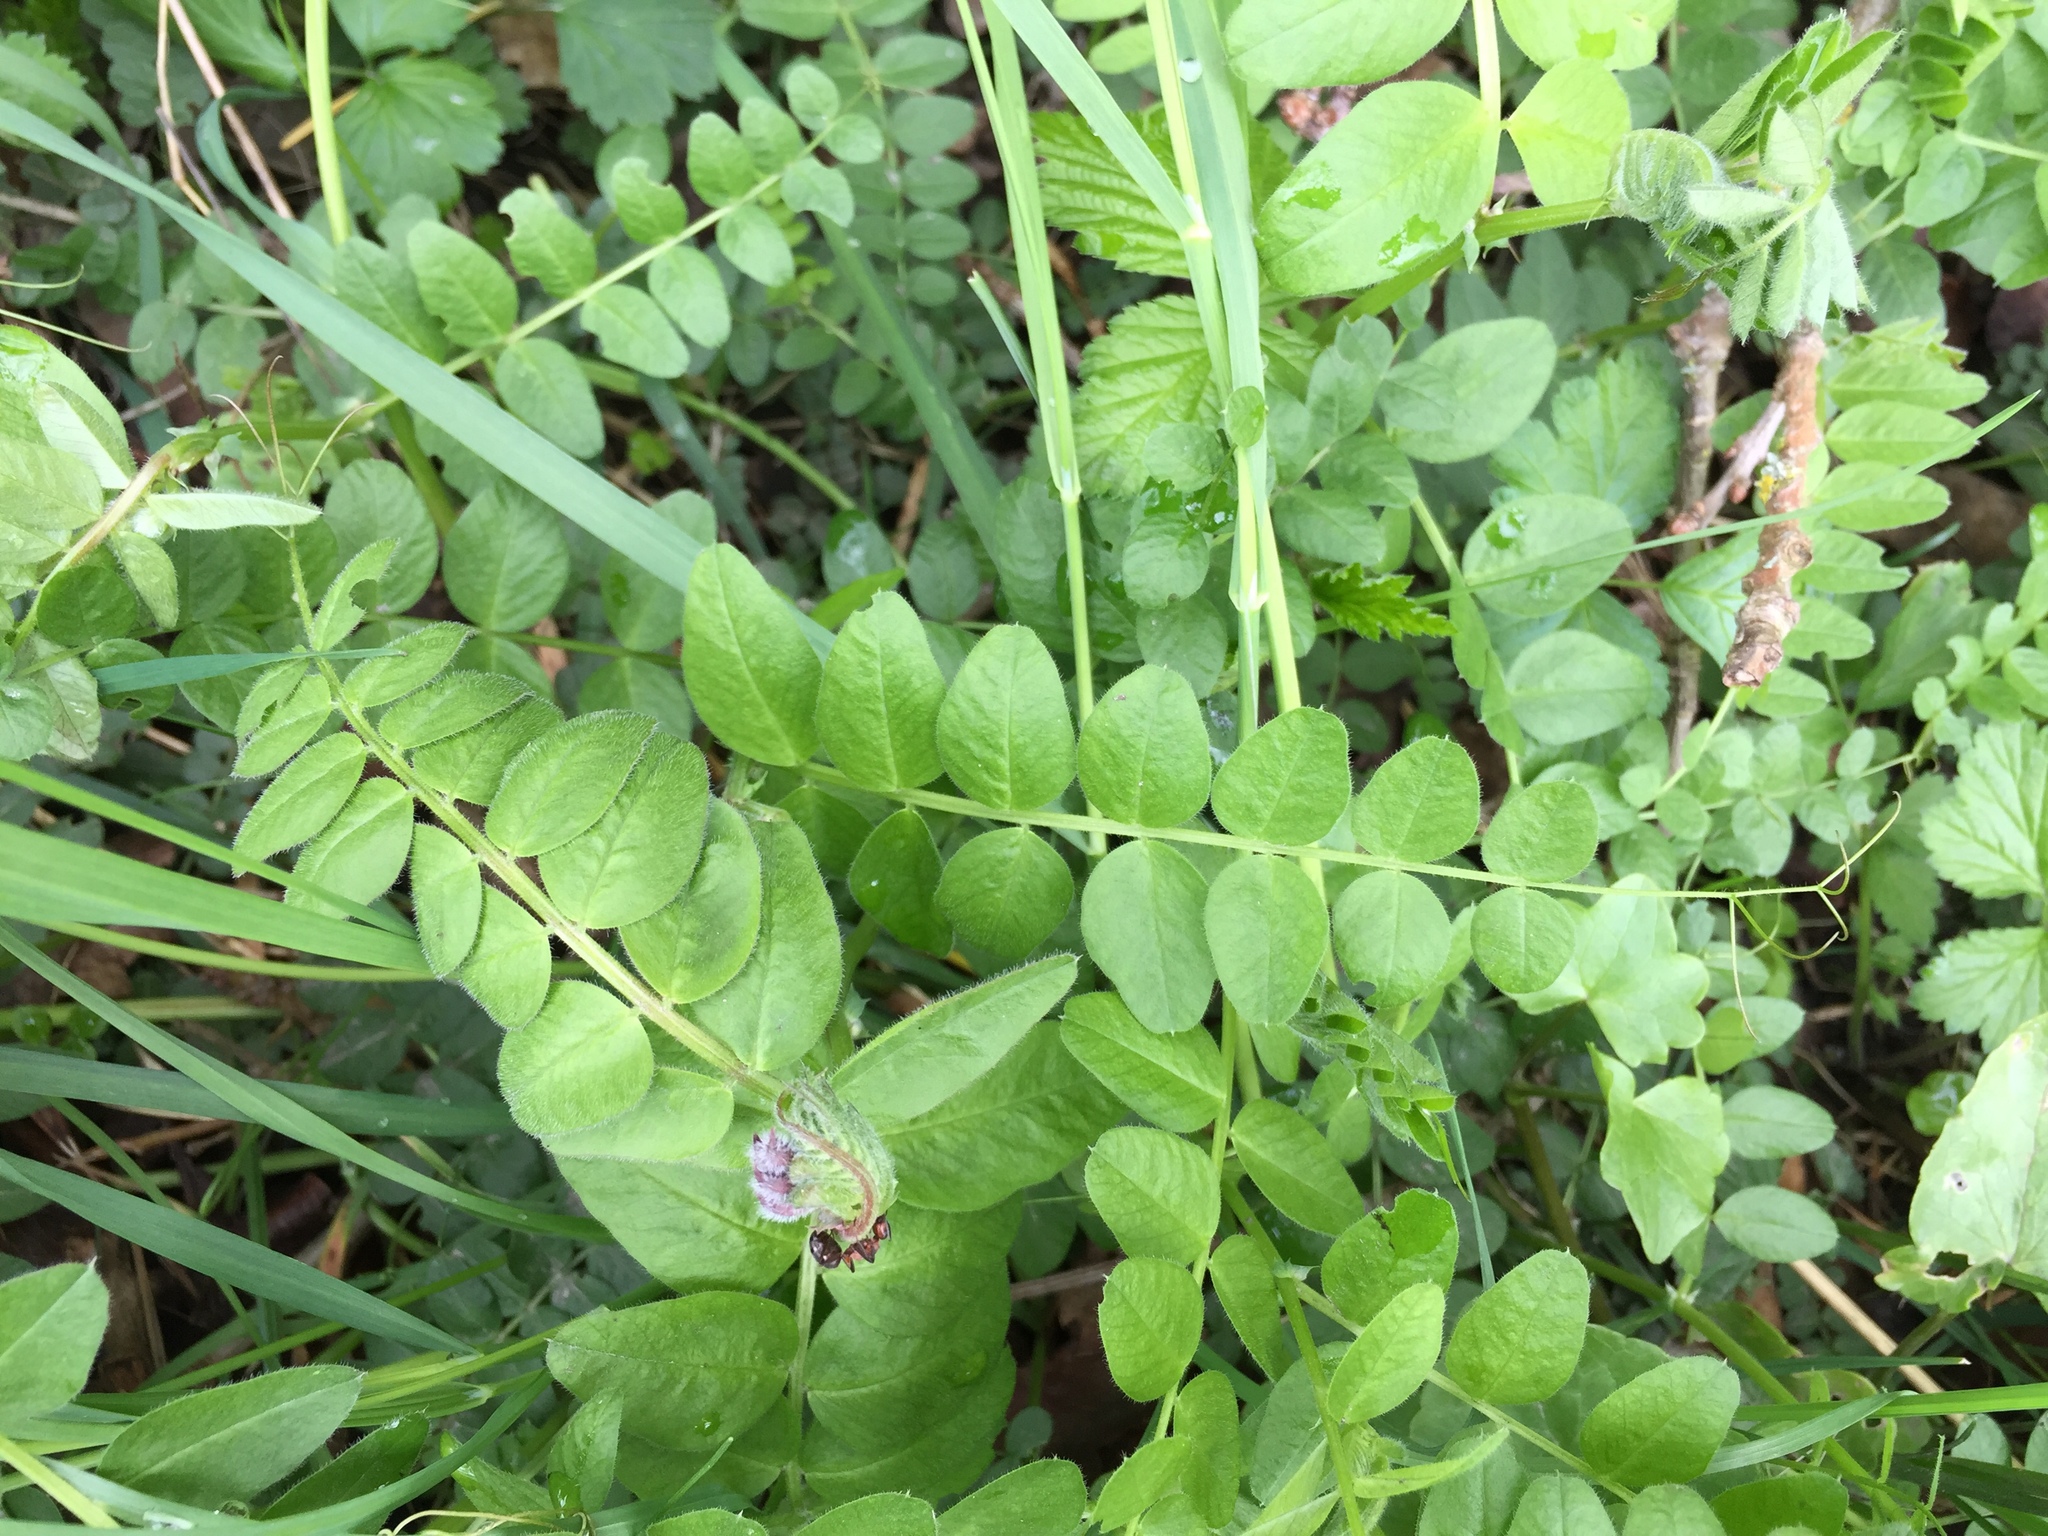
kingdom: Plantae
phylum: Tracheophyta
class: Magnoliopsida
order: Fabales
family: Fabaceae
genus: Vicia
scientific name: Vicia sepium
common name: Bush vetch
